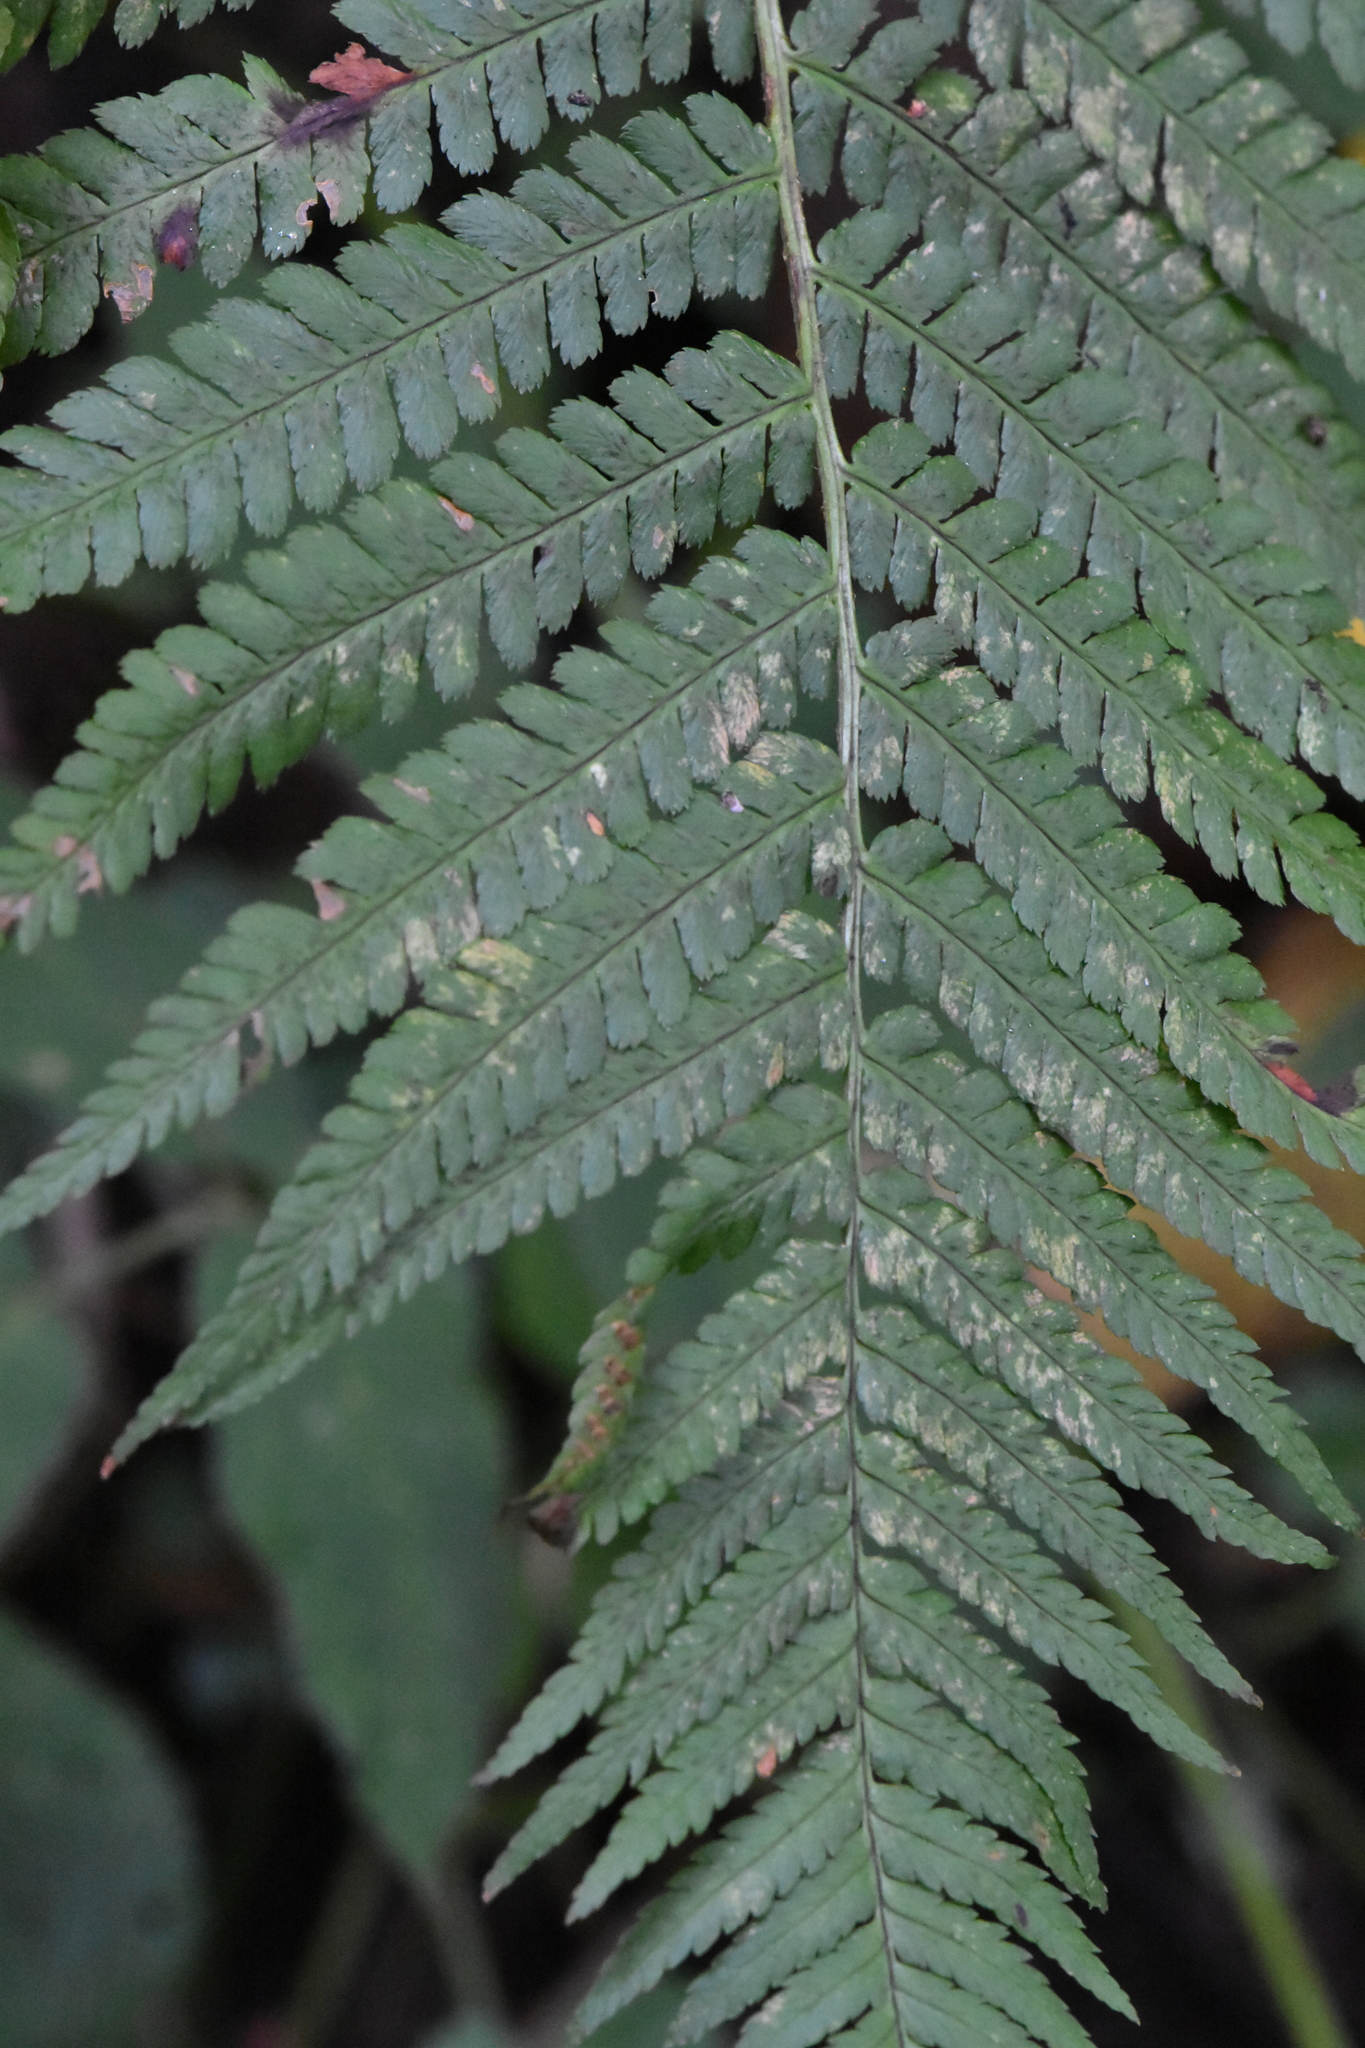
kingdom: Plantae
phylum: Tracheophyta
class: Polypodiopsida
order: Polypodiales
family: Dryopteridaceae
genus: Dryopteris
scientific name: Dryopteris filix-mas
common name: Male fern
